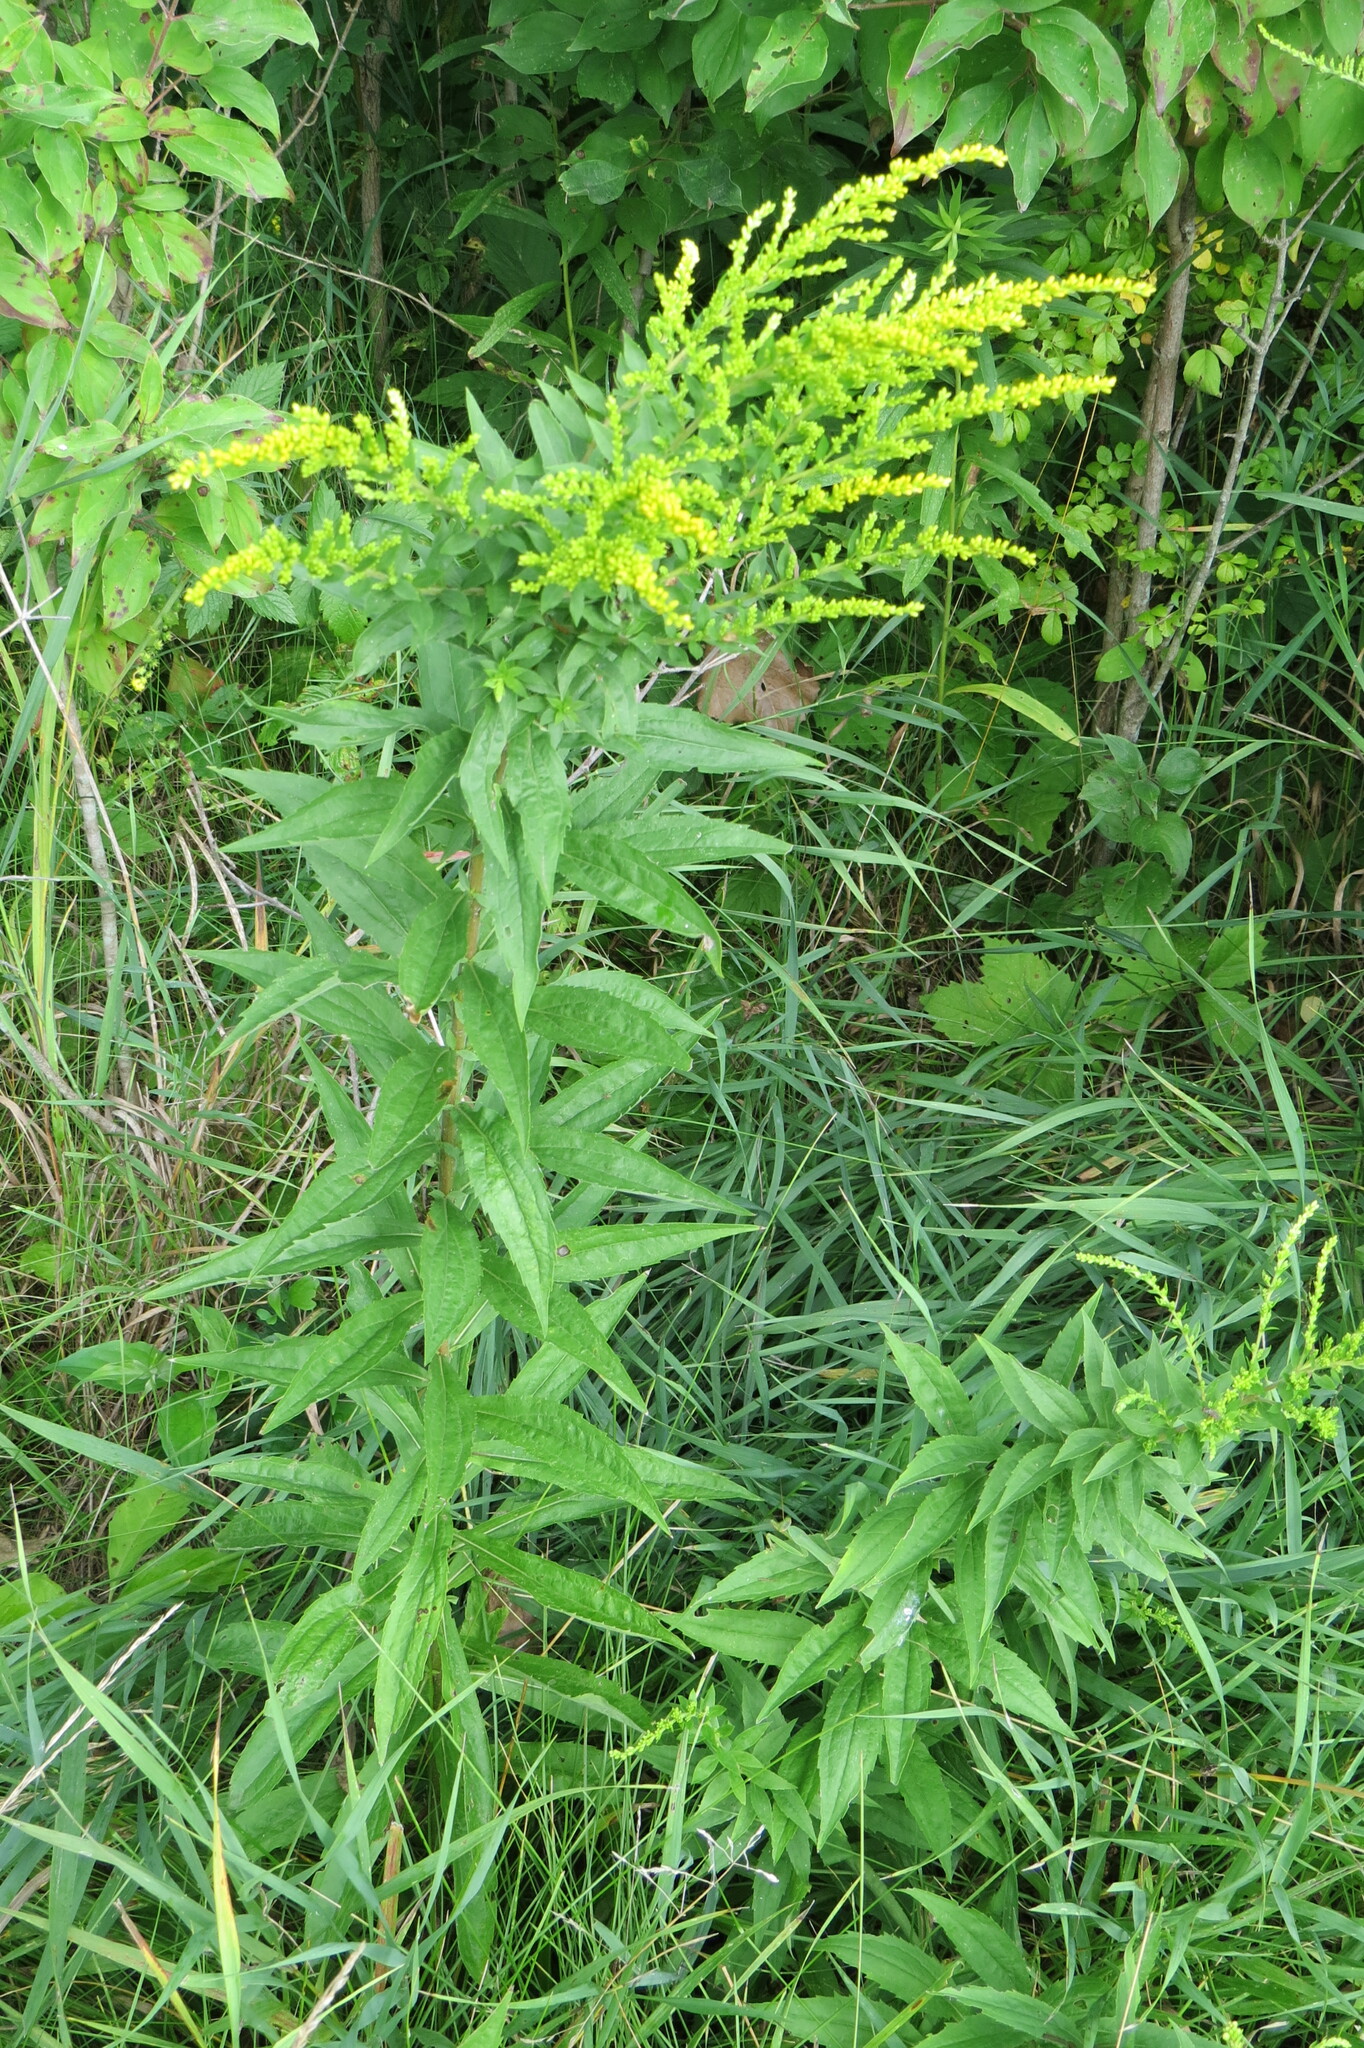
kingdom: Plantae
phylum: Tracheophyta
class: Magnoliopsida
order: Asterales
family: Asteraceae
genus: Solidago
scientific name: Solidago canadensis
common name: Canada goldenrod
